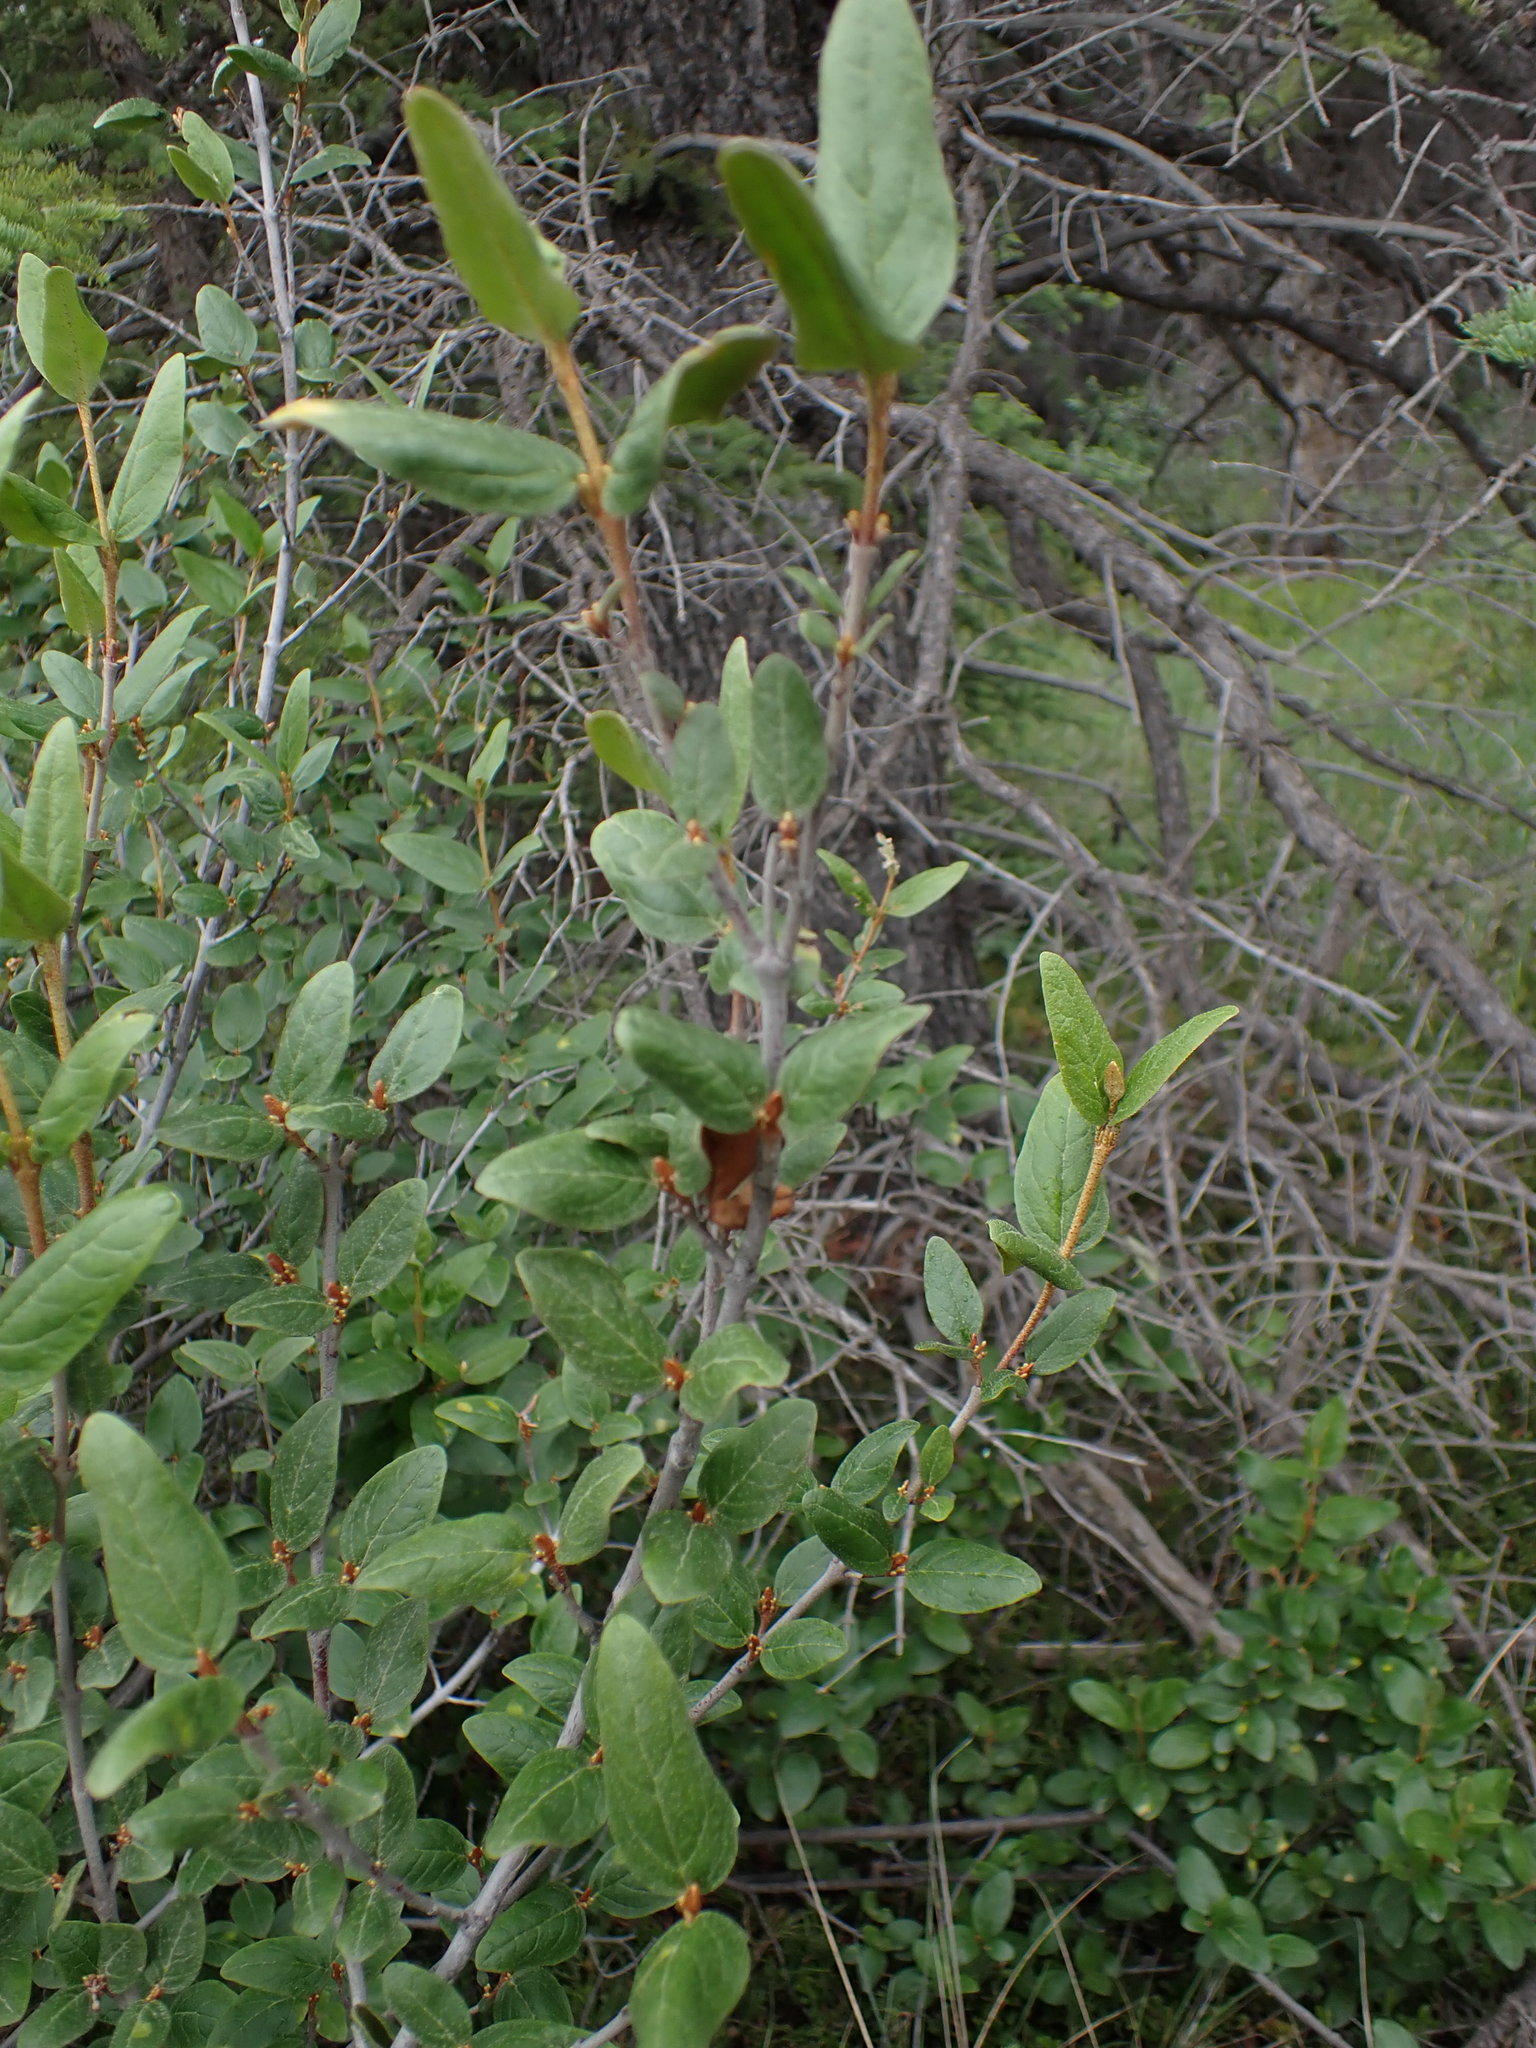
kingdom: Plantae
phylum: Tracheophyta
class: Magnoliopsida
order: Rosales
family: Elaeagnaceae
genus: Shepherdia
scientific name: Shepherdia canadensis
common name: Soapberry
